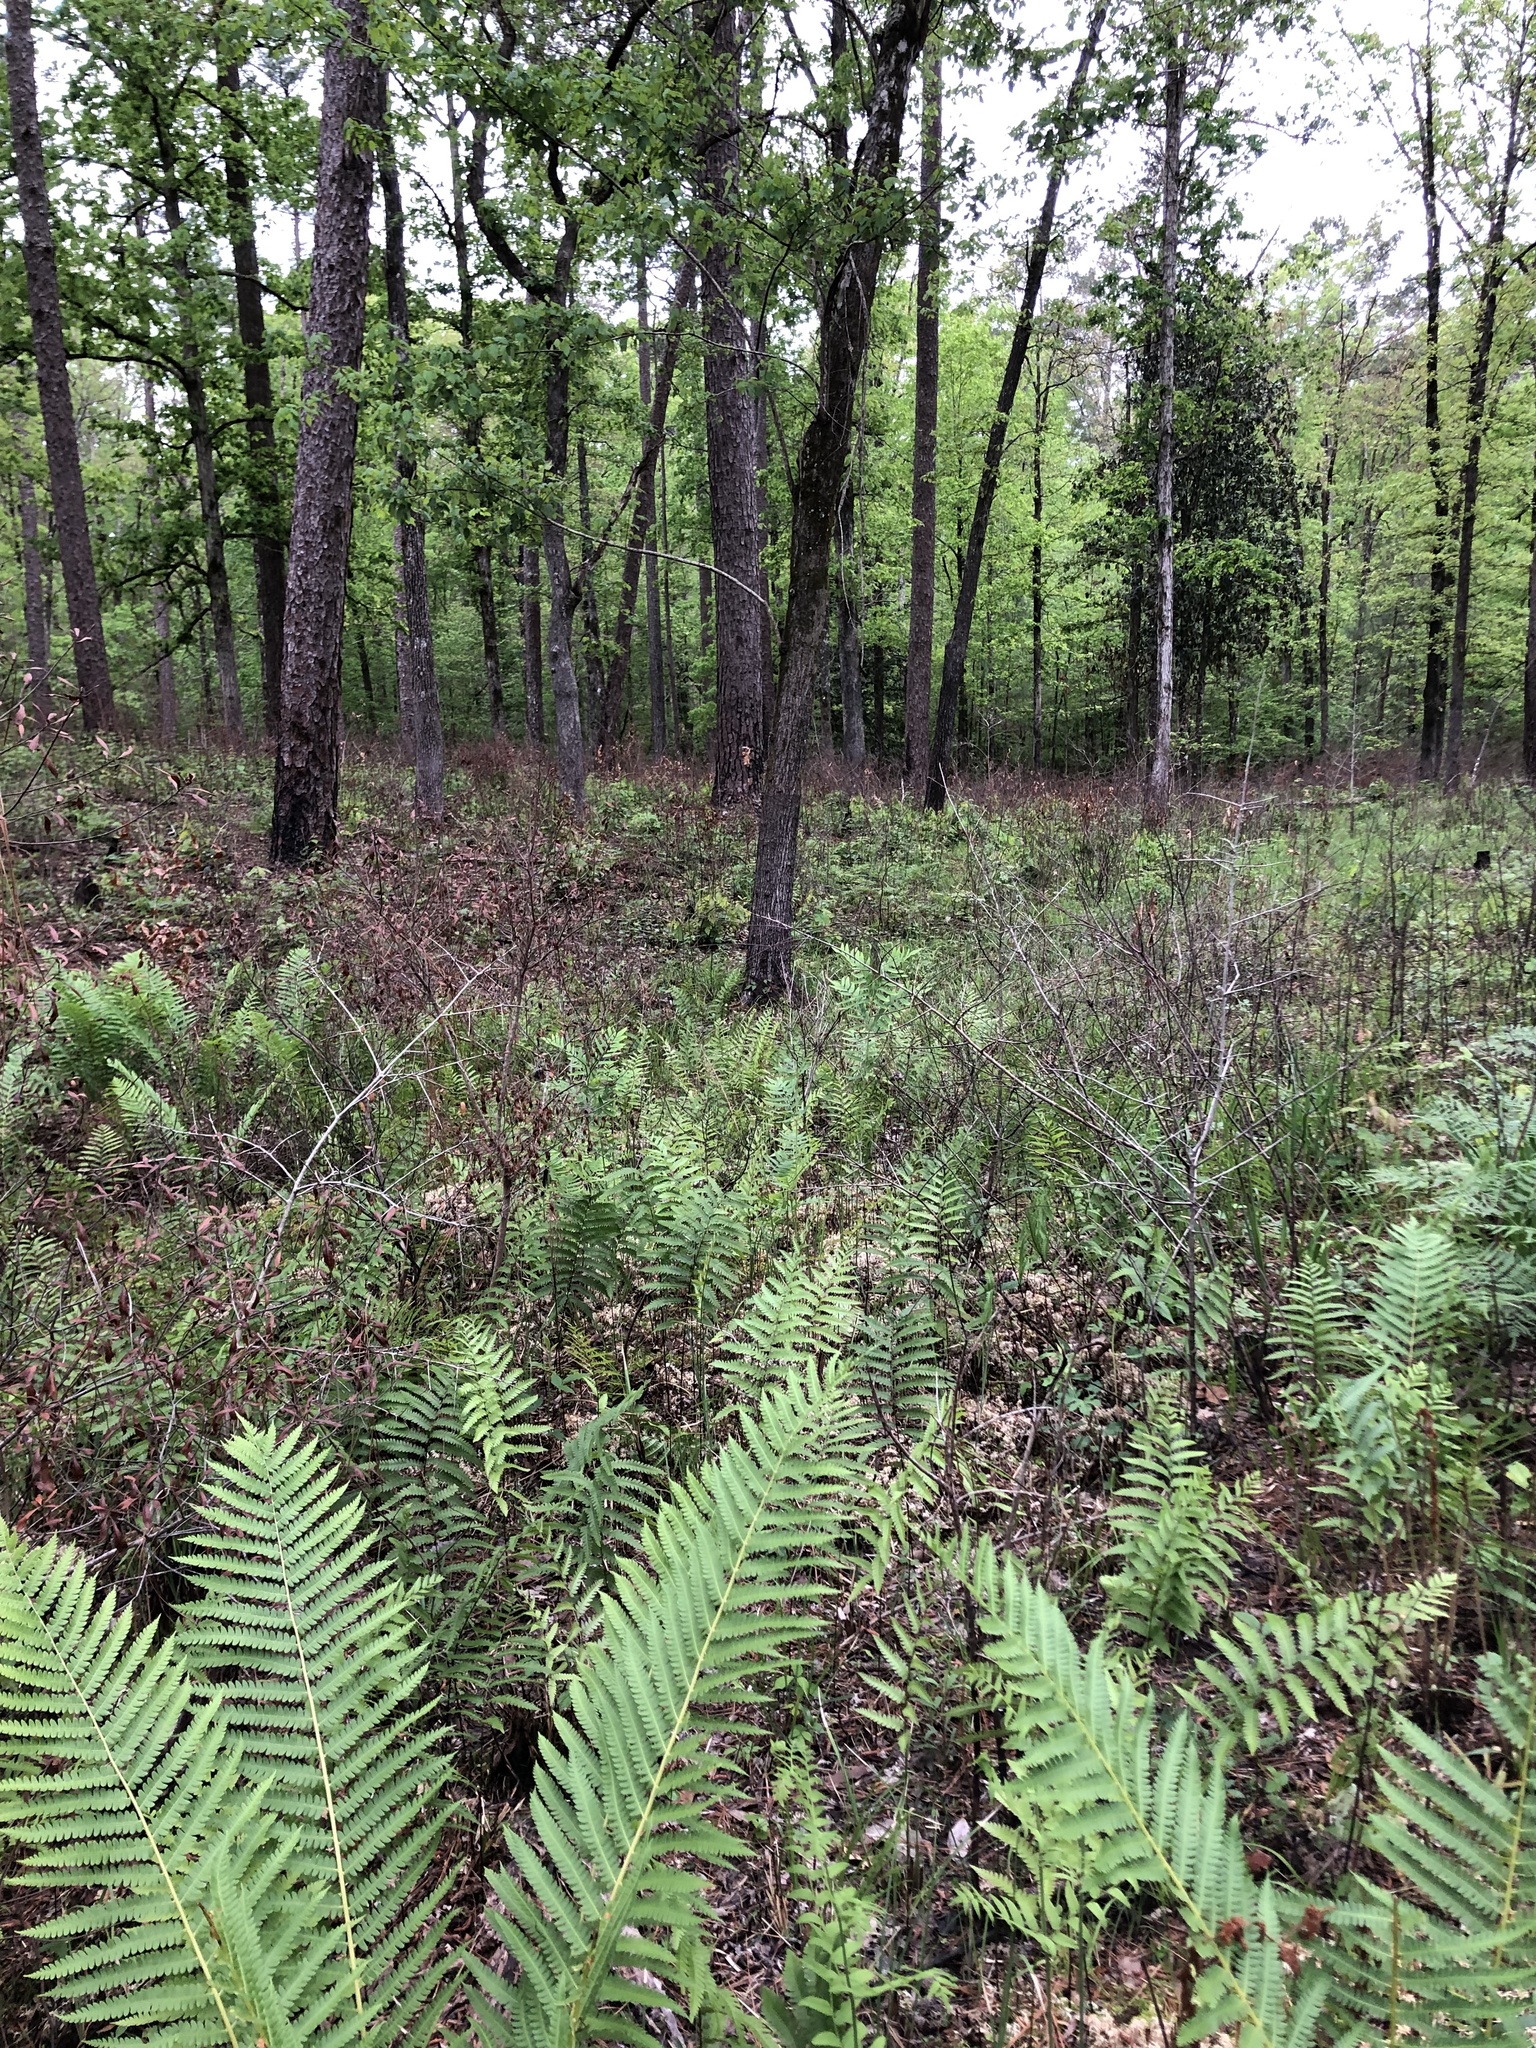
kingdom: Plantae
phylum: Tracheophyta
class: Polypodiopsida
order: Polypodiales
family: Blechnaceae
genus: Anchistea
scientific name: Anchistea virginica
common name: Virginia chain fern
